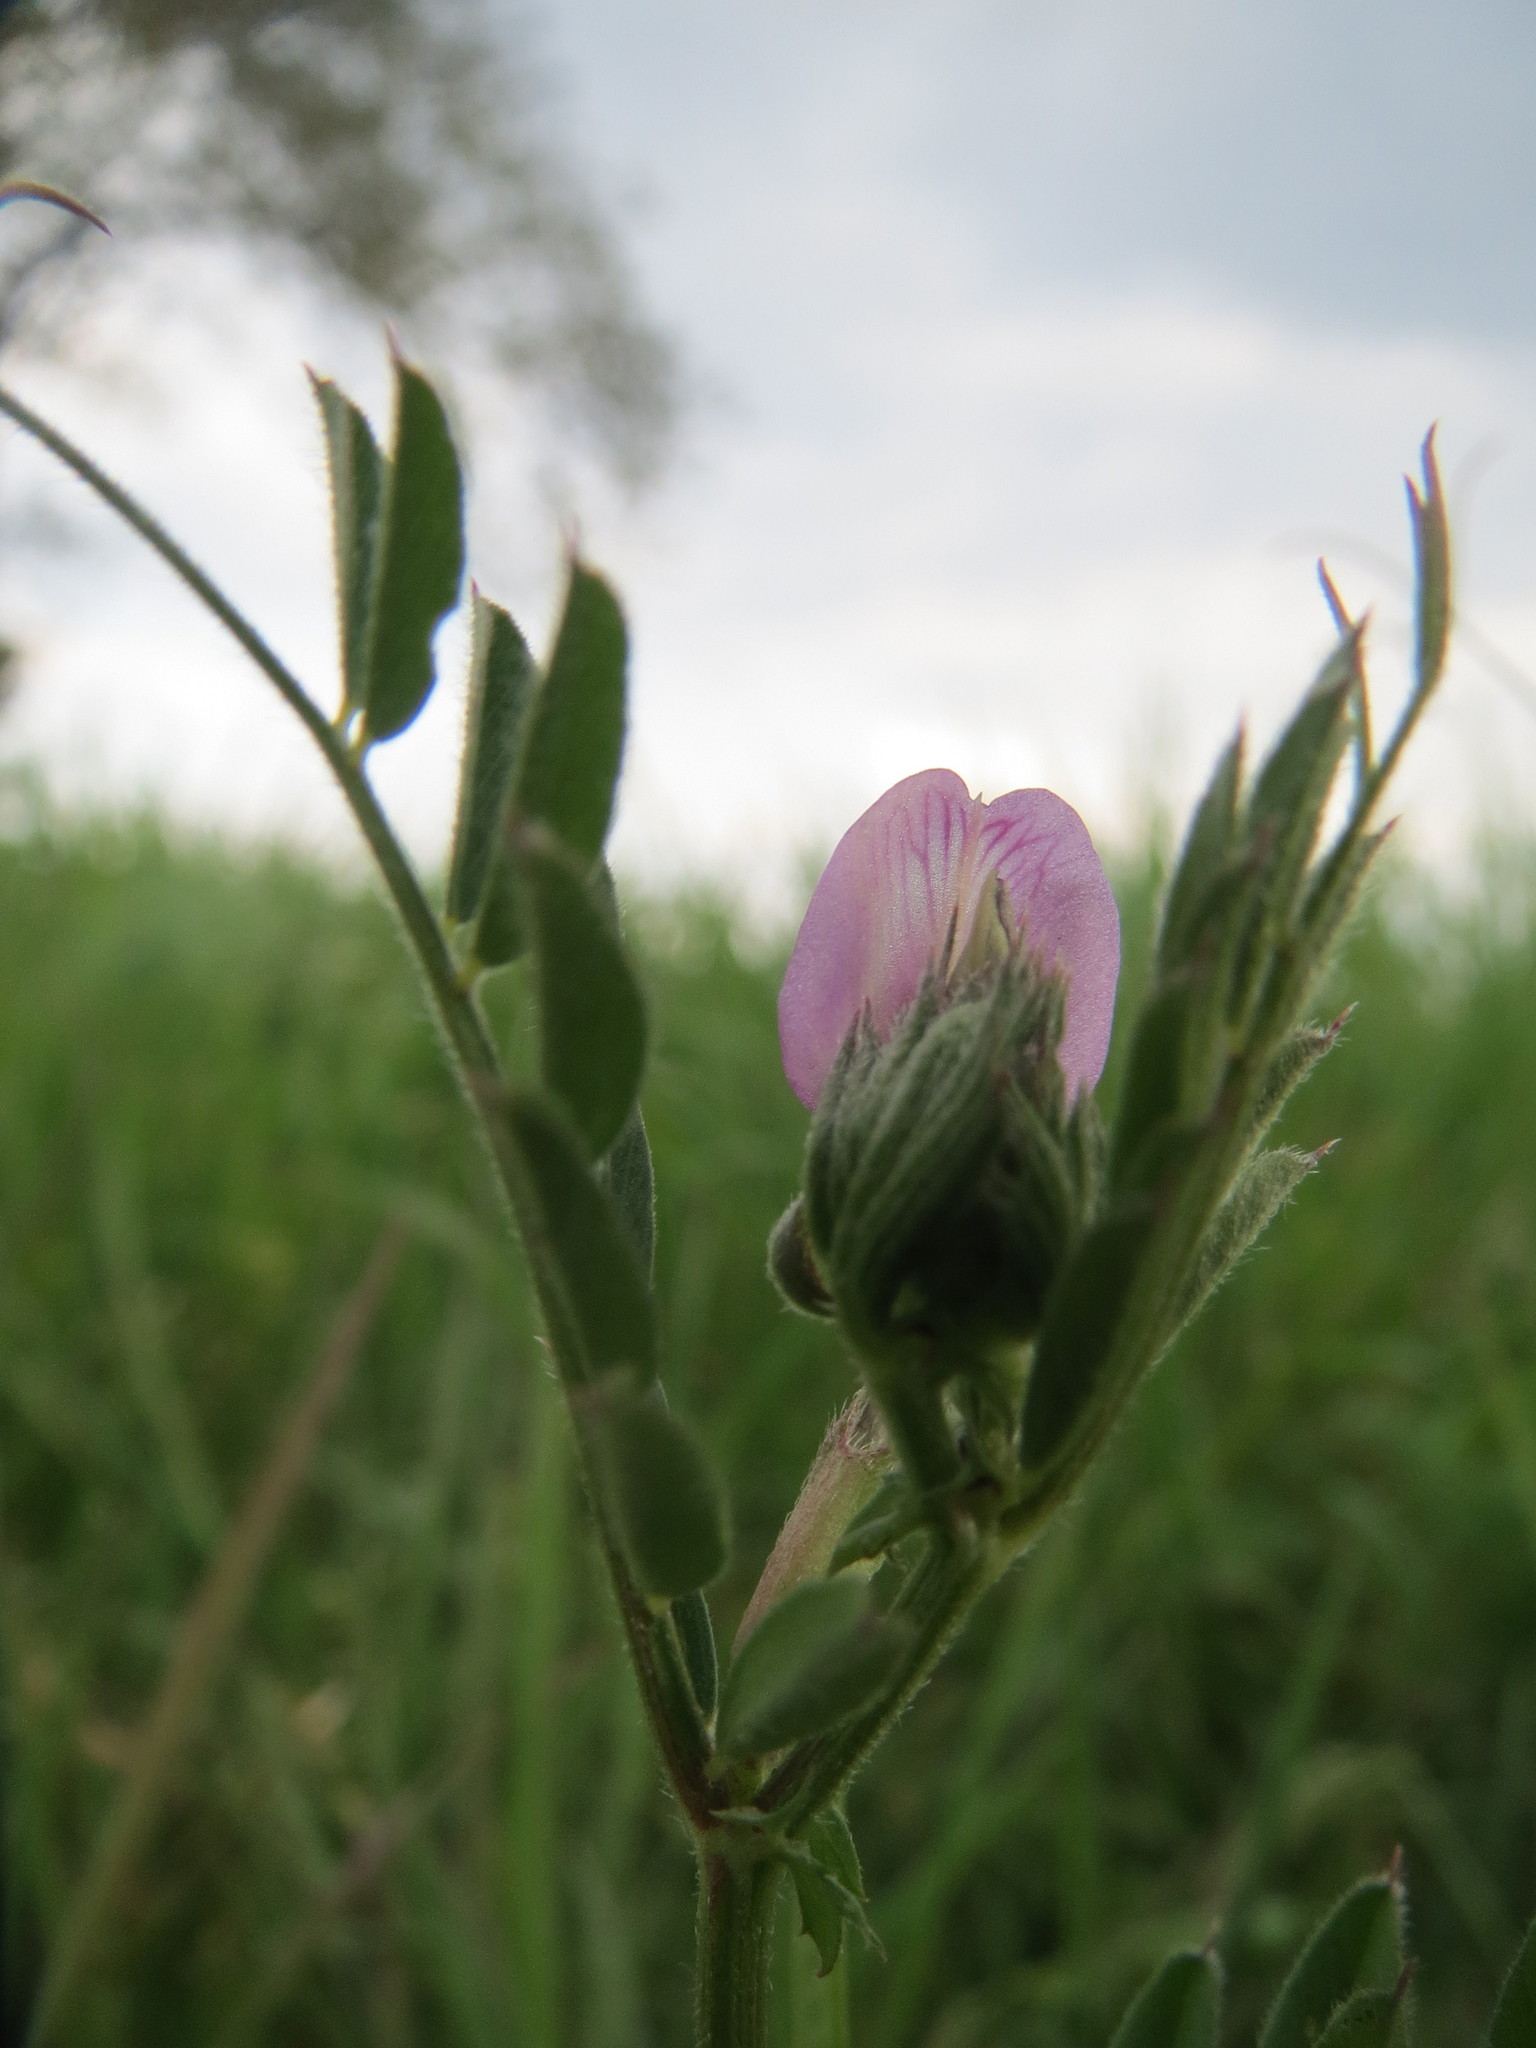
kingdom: Plantae
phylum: Tracheophyta
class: Magnoliopsida
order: Fabales
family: Fabaceae
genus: Vicia
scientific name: Vicia sativa
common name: Garden vetch
